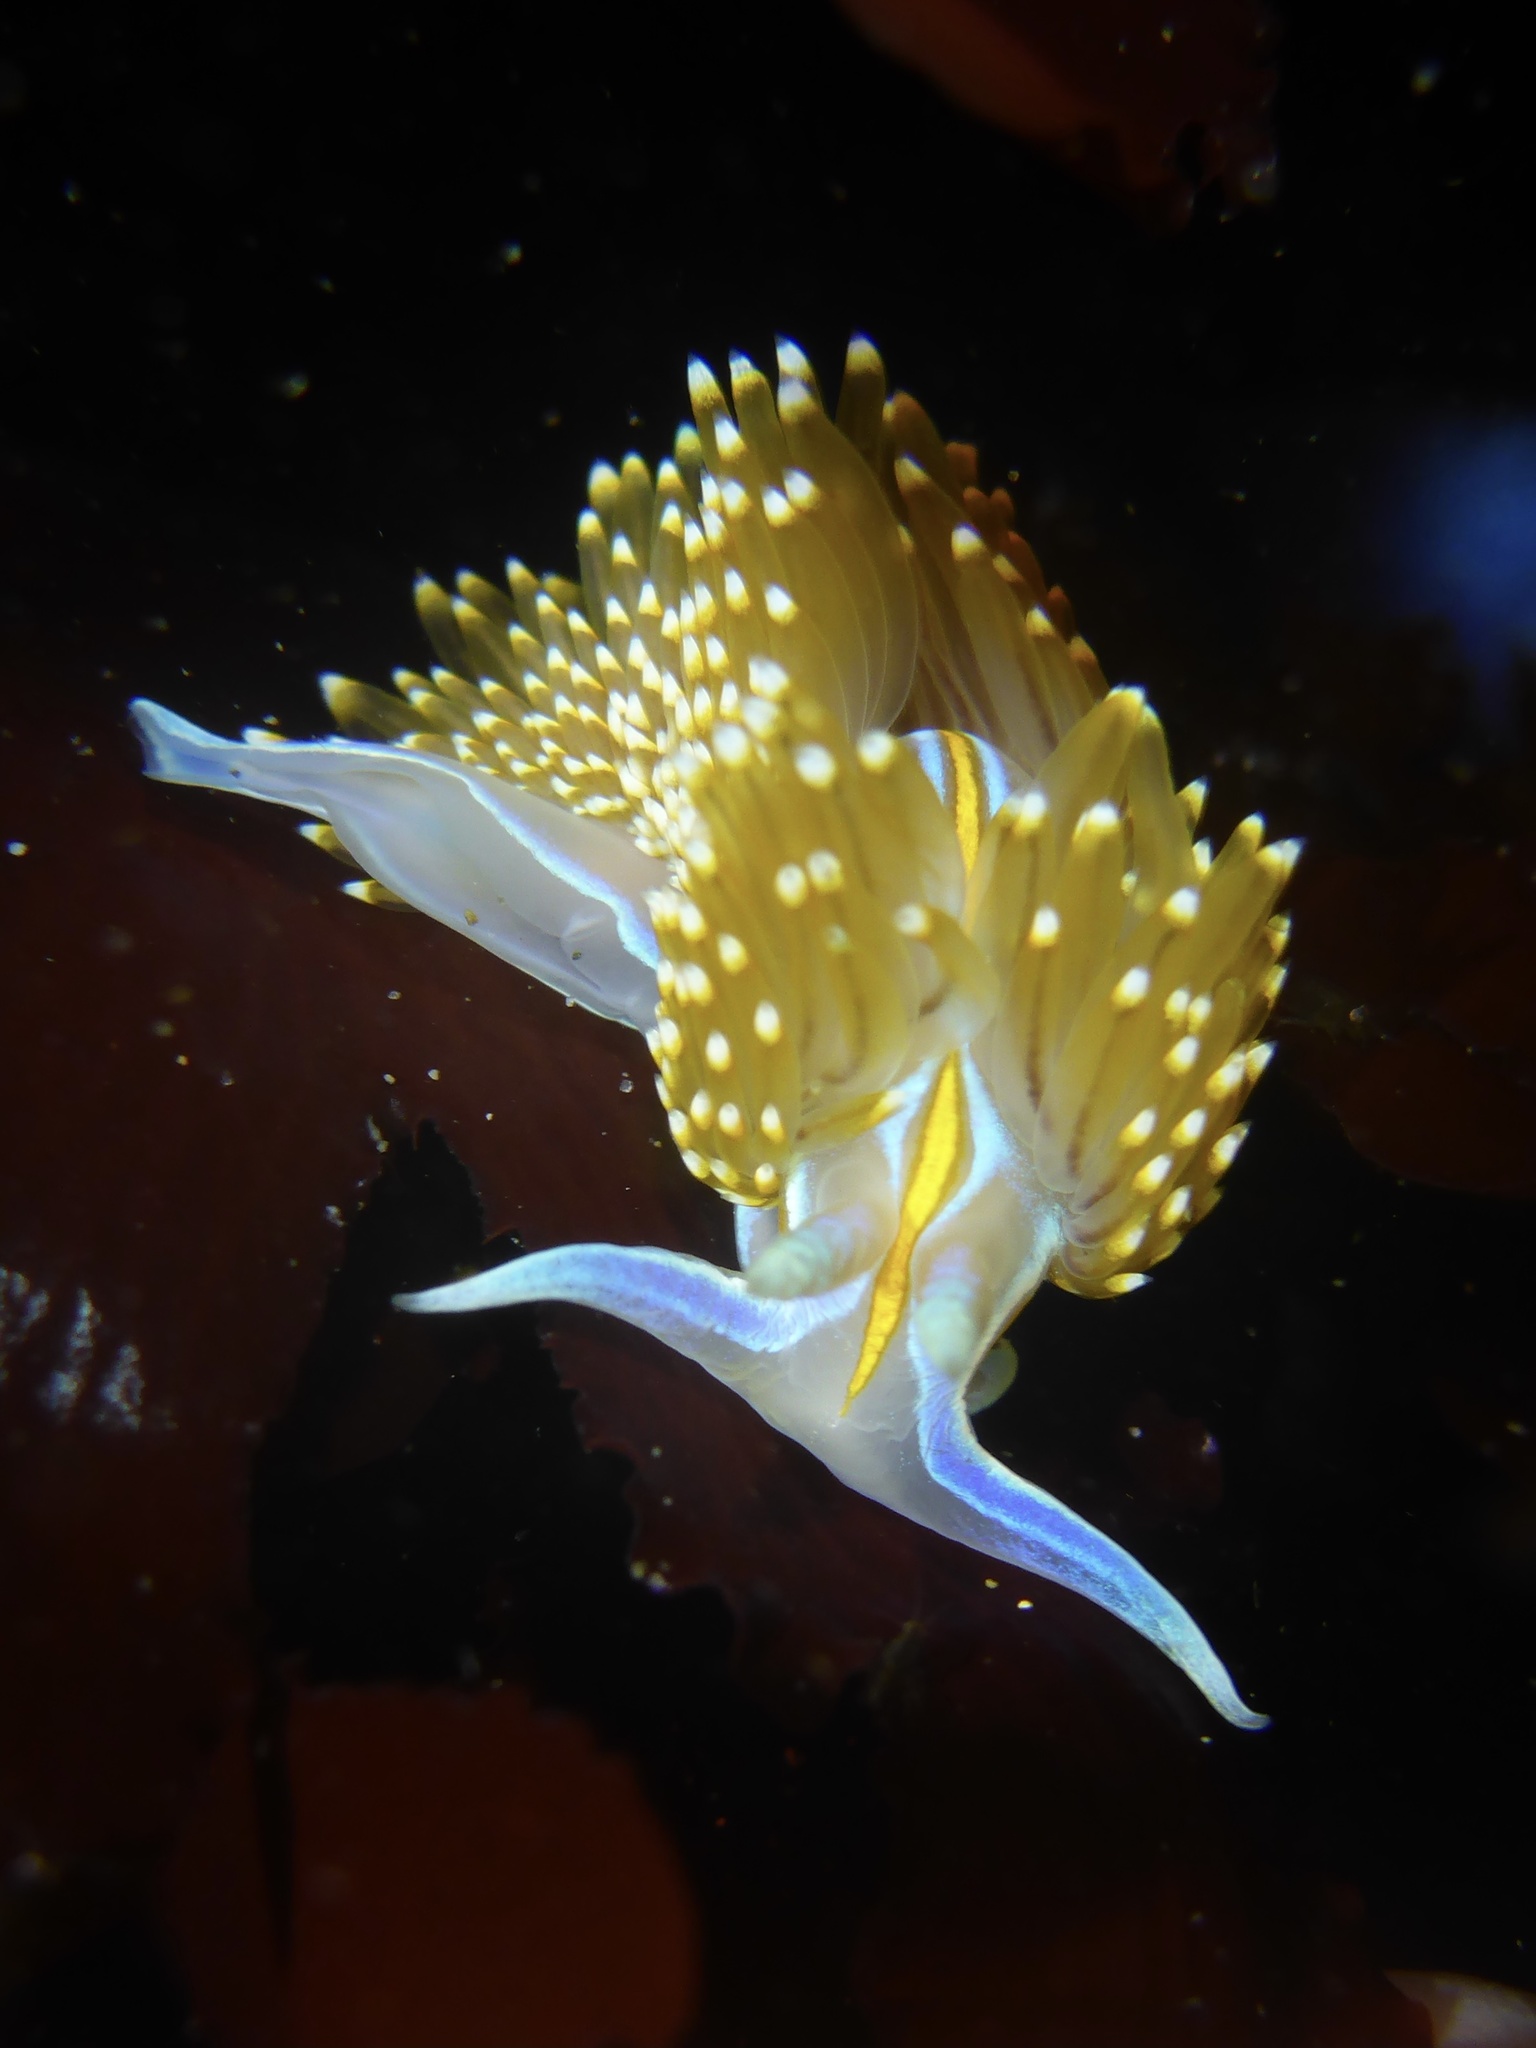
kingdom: Animalia
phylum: Mollusca
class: Gastropoda
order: Nudibranchia
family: Myrrhinidae
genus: Hermissenda
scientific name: Hermissenda opalescens
